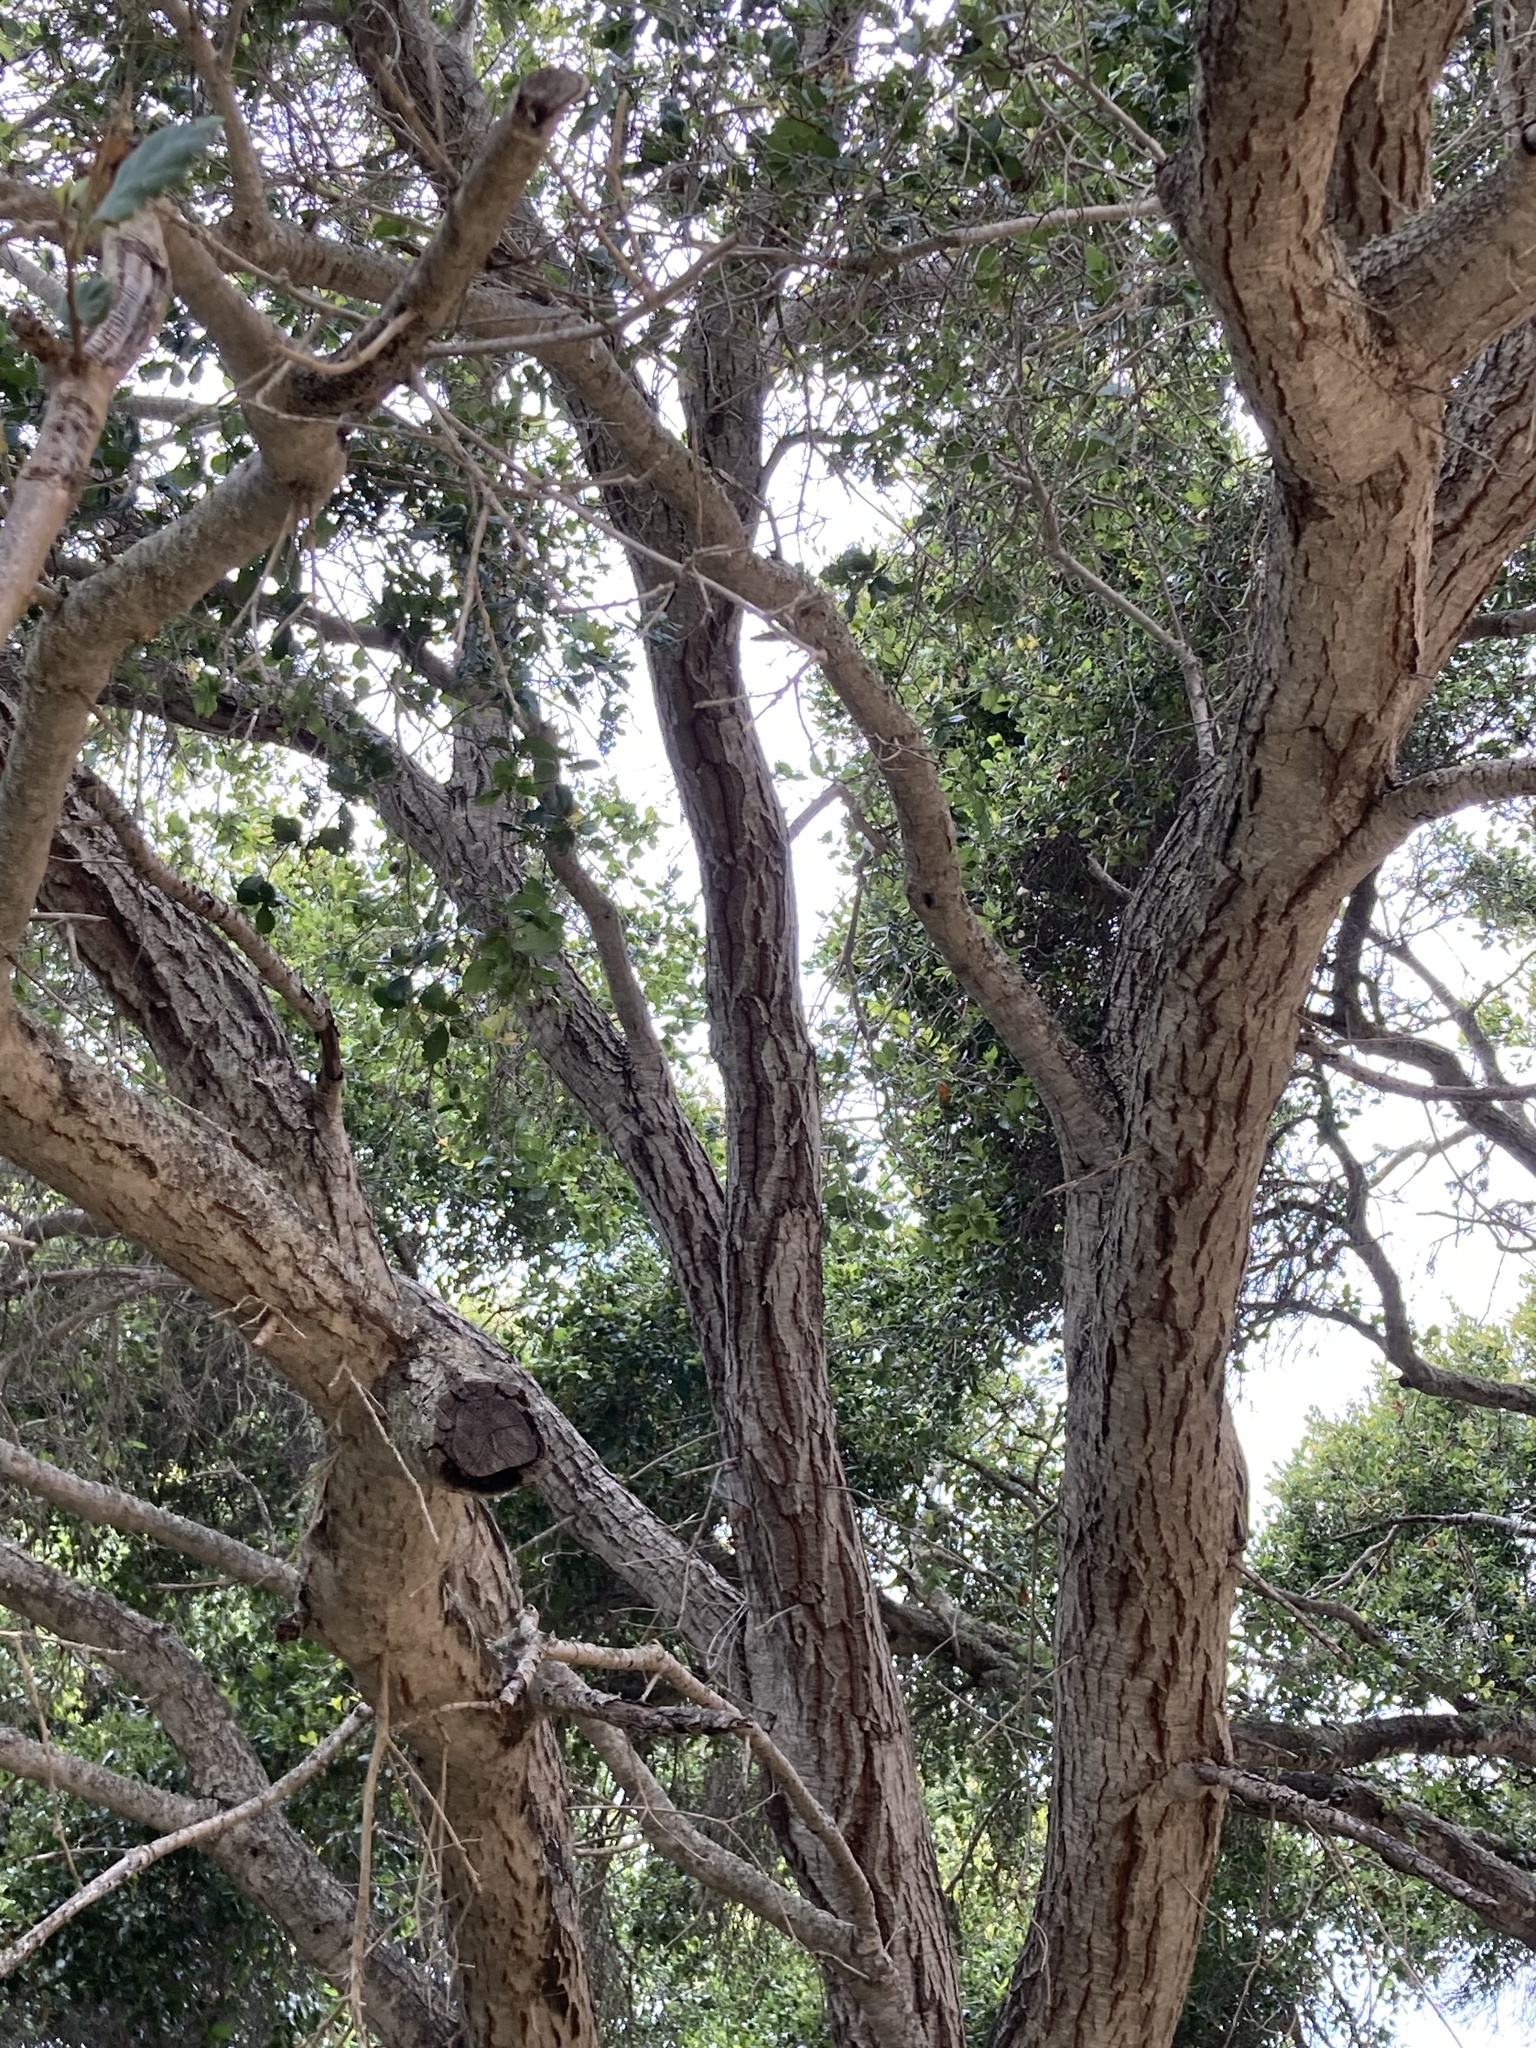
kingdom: Plantae
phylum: Tracheophyta
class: Magnoliopsida
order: Fagales
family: Fagaceae
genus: Quercus
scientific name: Quercus agrifolia
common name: California live oak
